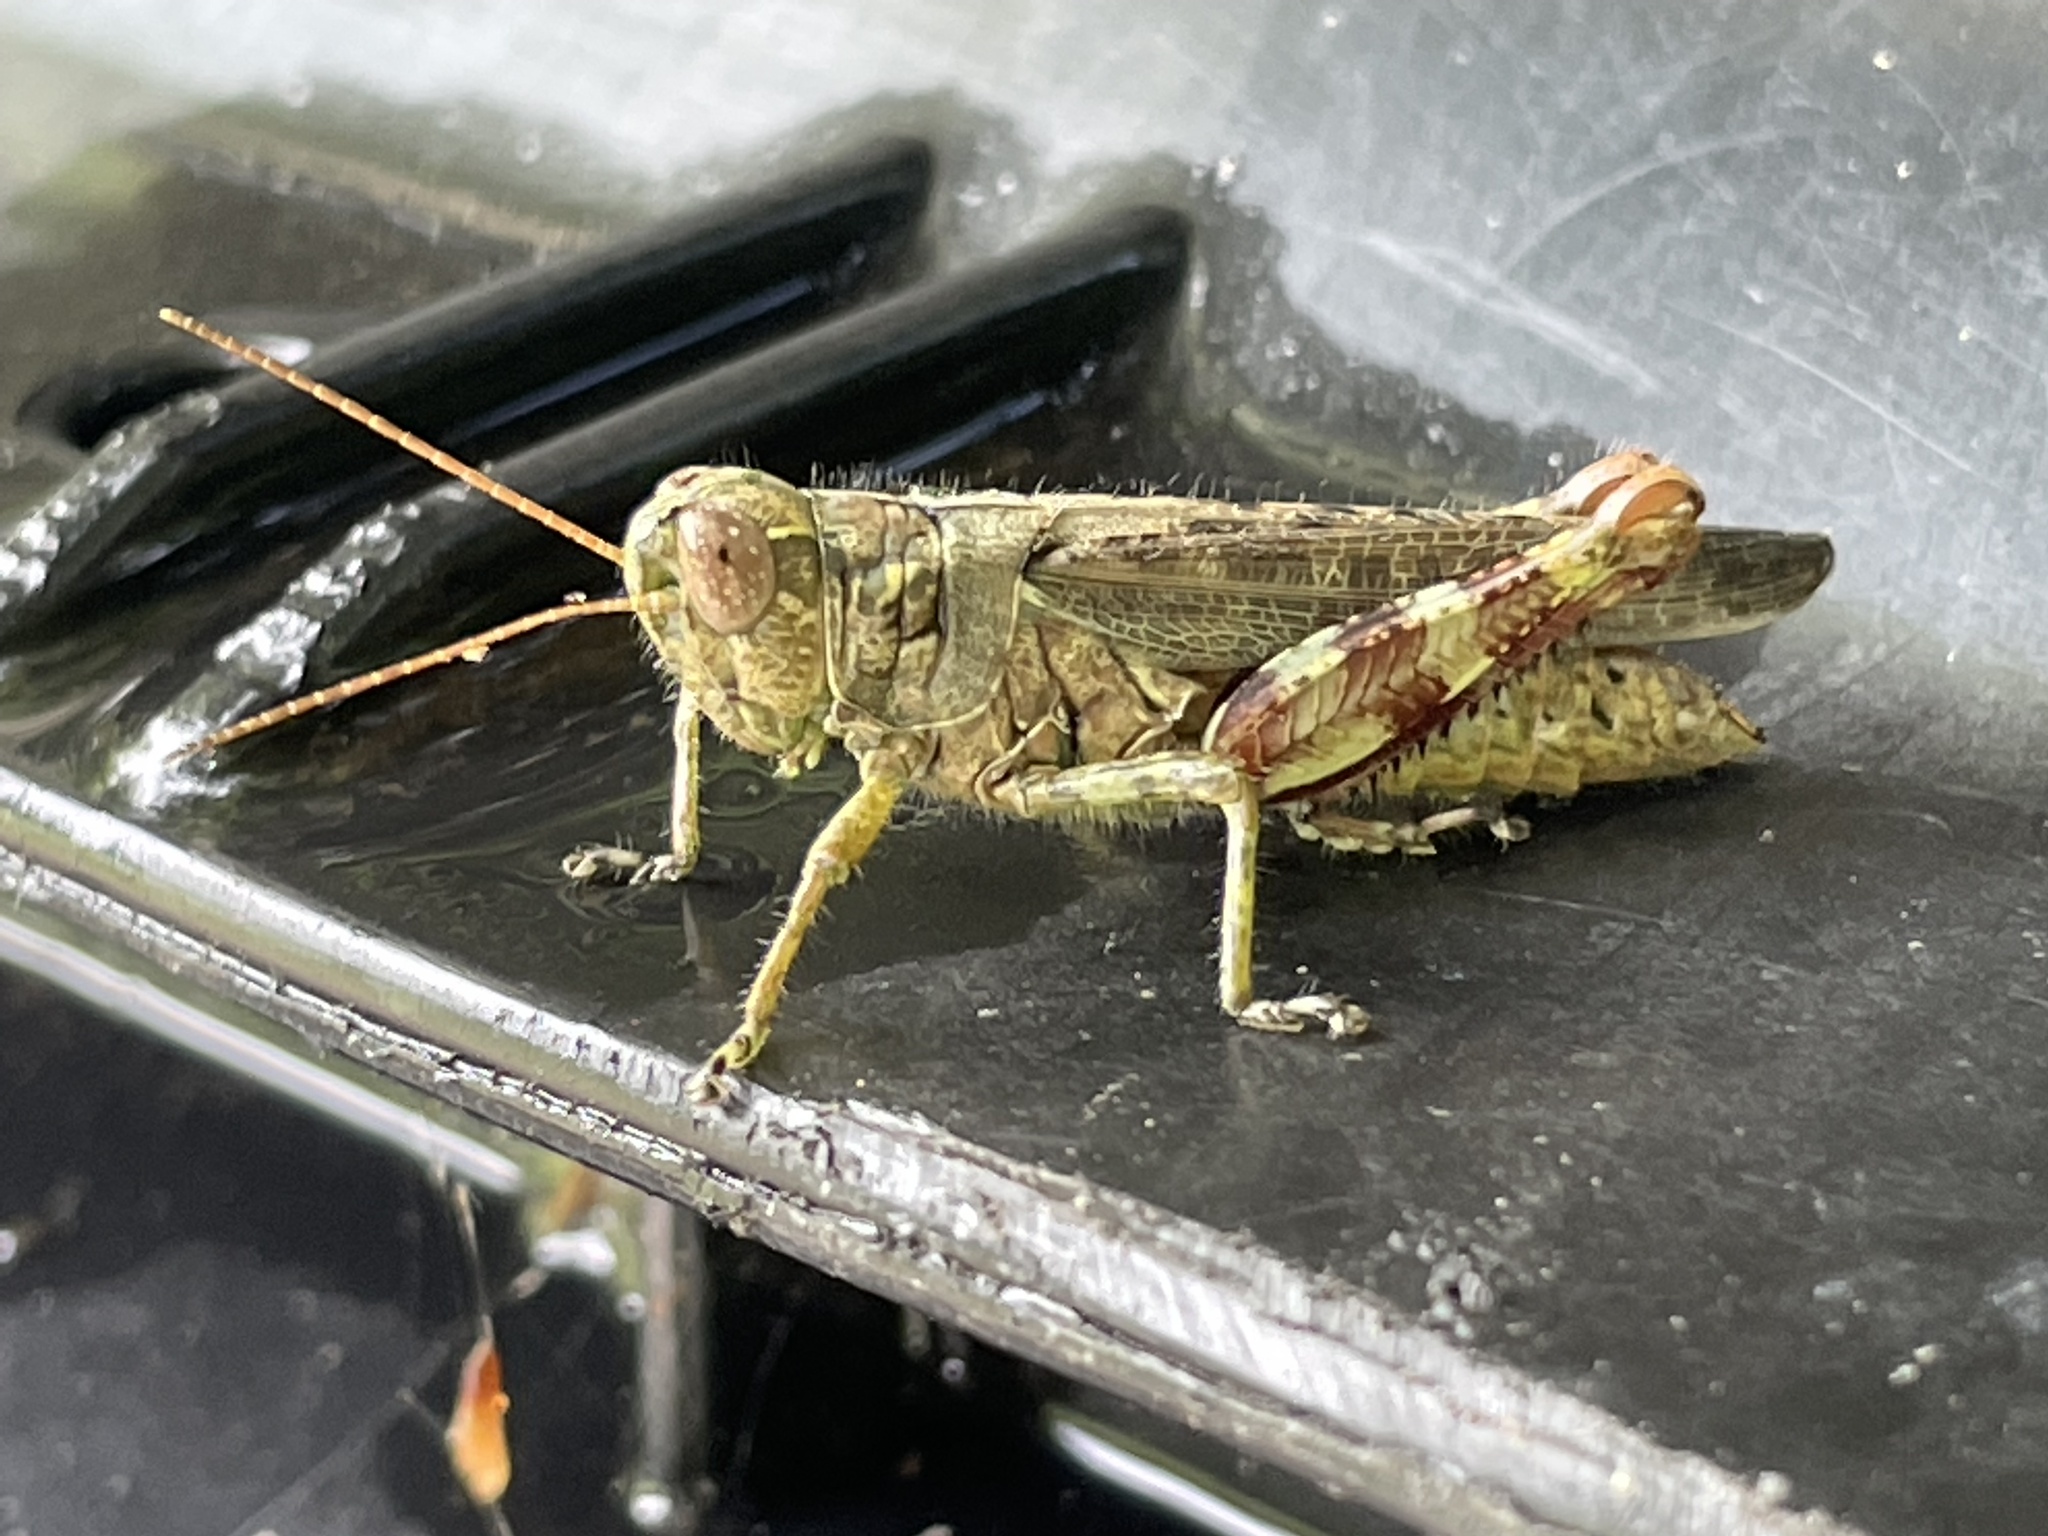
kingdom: Animalia
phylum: Arthropoda
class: Insecta
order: Orthoptera
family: Acrididae
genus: Melanoplus
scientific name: Melanoplus punctulatus
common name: Pine-tree spur-throat grasshopper
